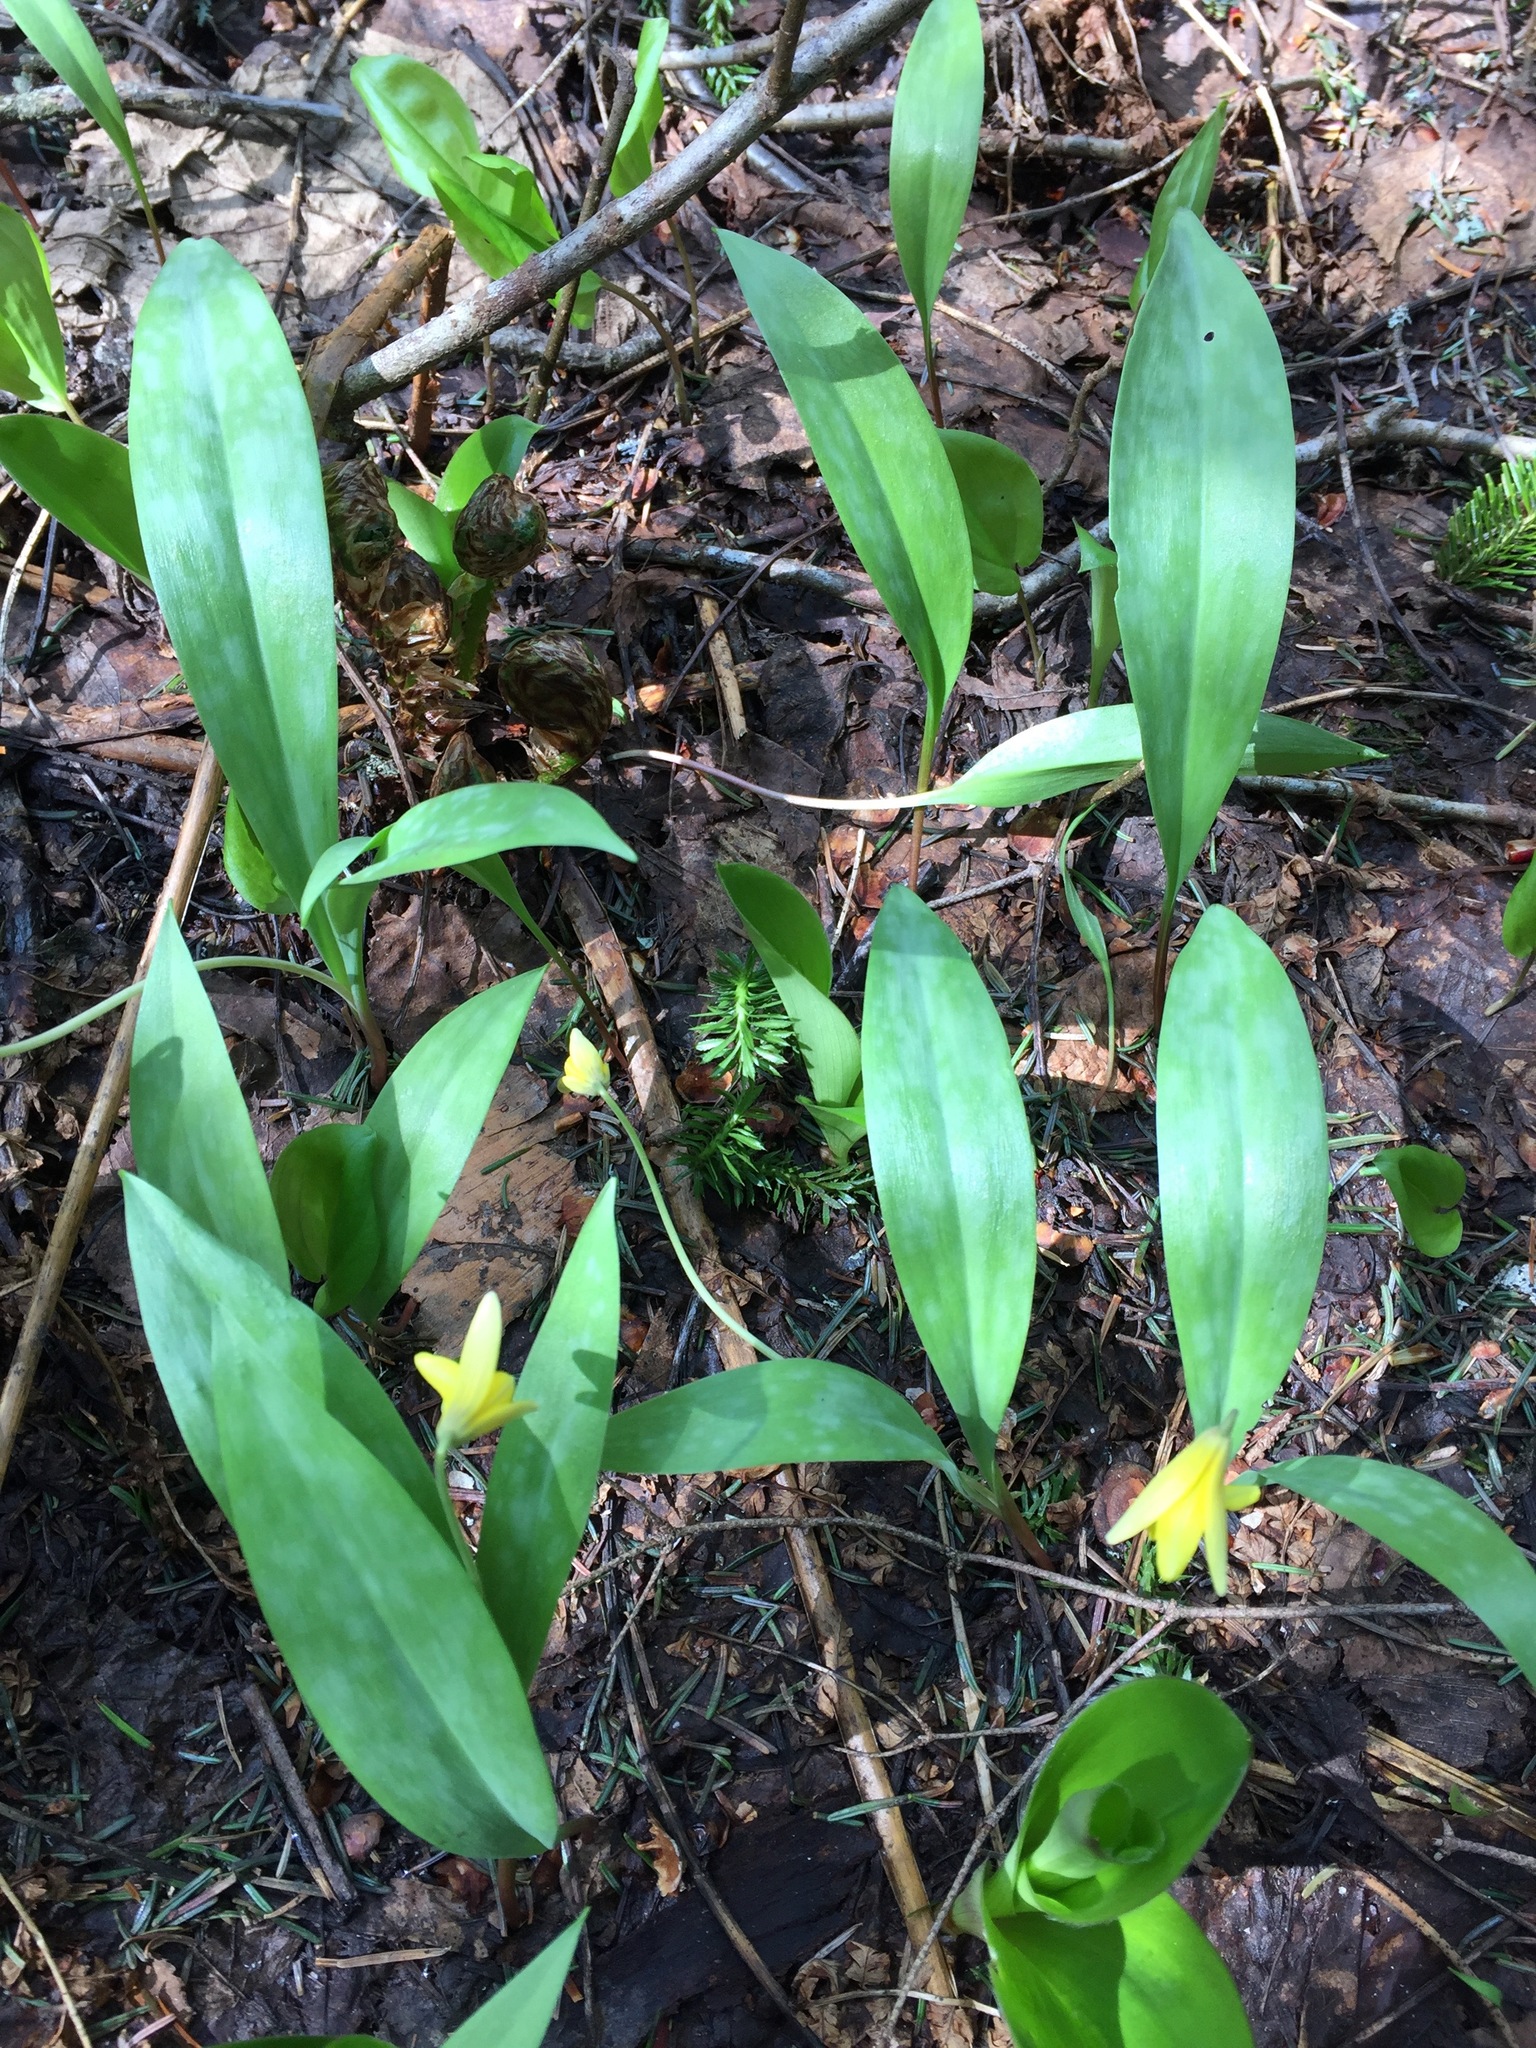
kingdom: Plantae
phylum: Tracheophyta
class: Liliopsida
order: Liliales
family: Liliaceae
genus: Erythronium
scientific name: Erythronium americanum
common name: Yellow adder's-tongue
